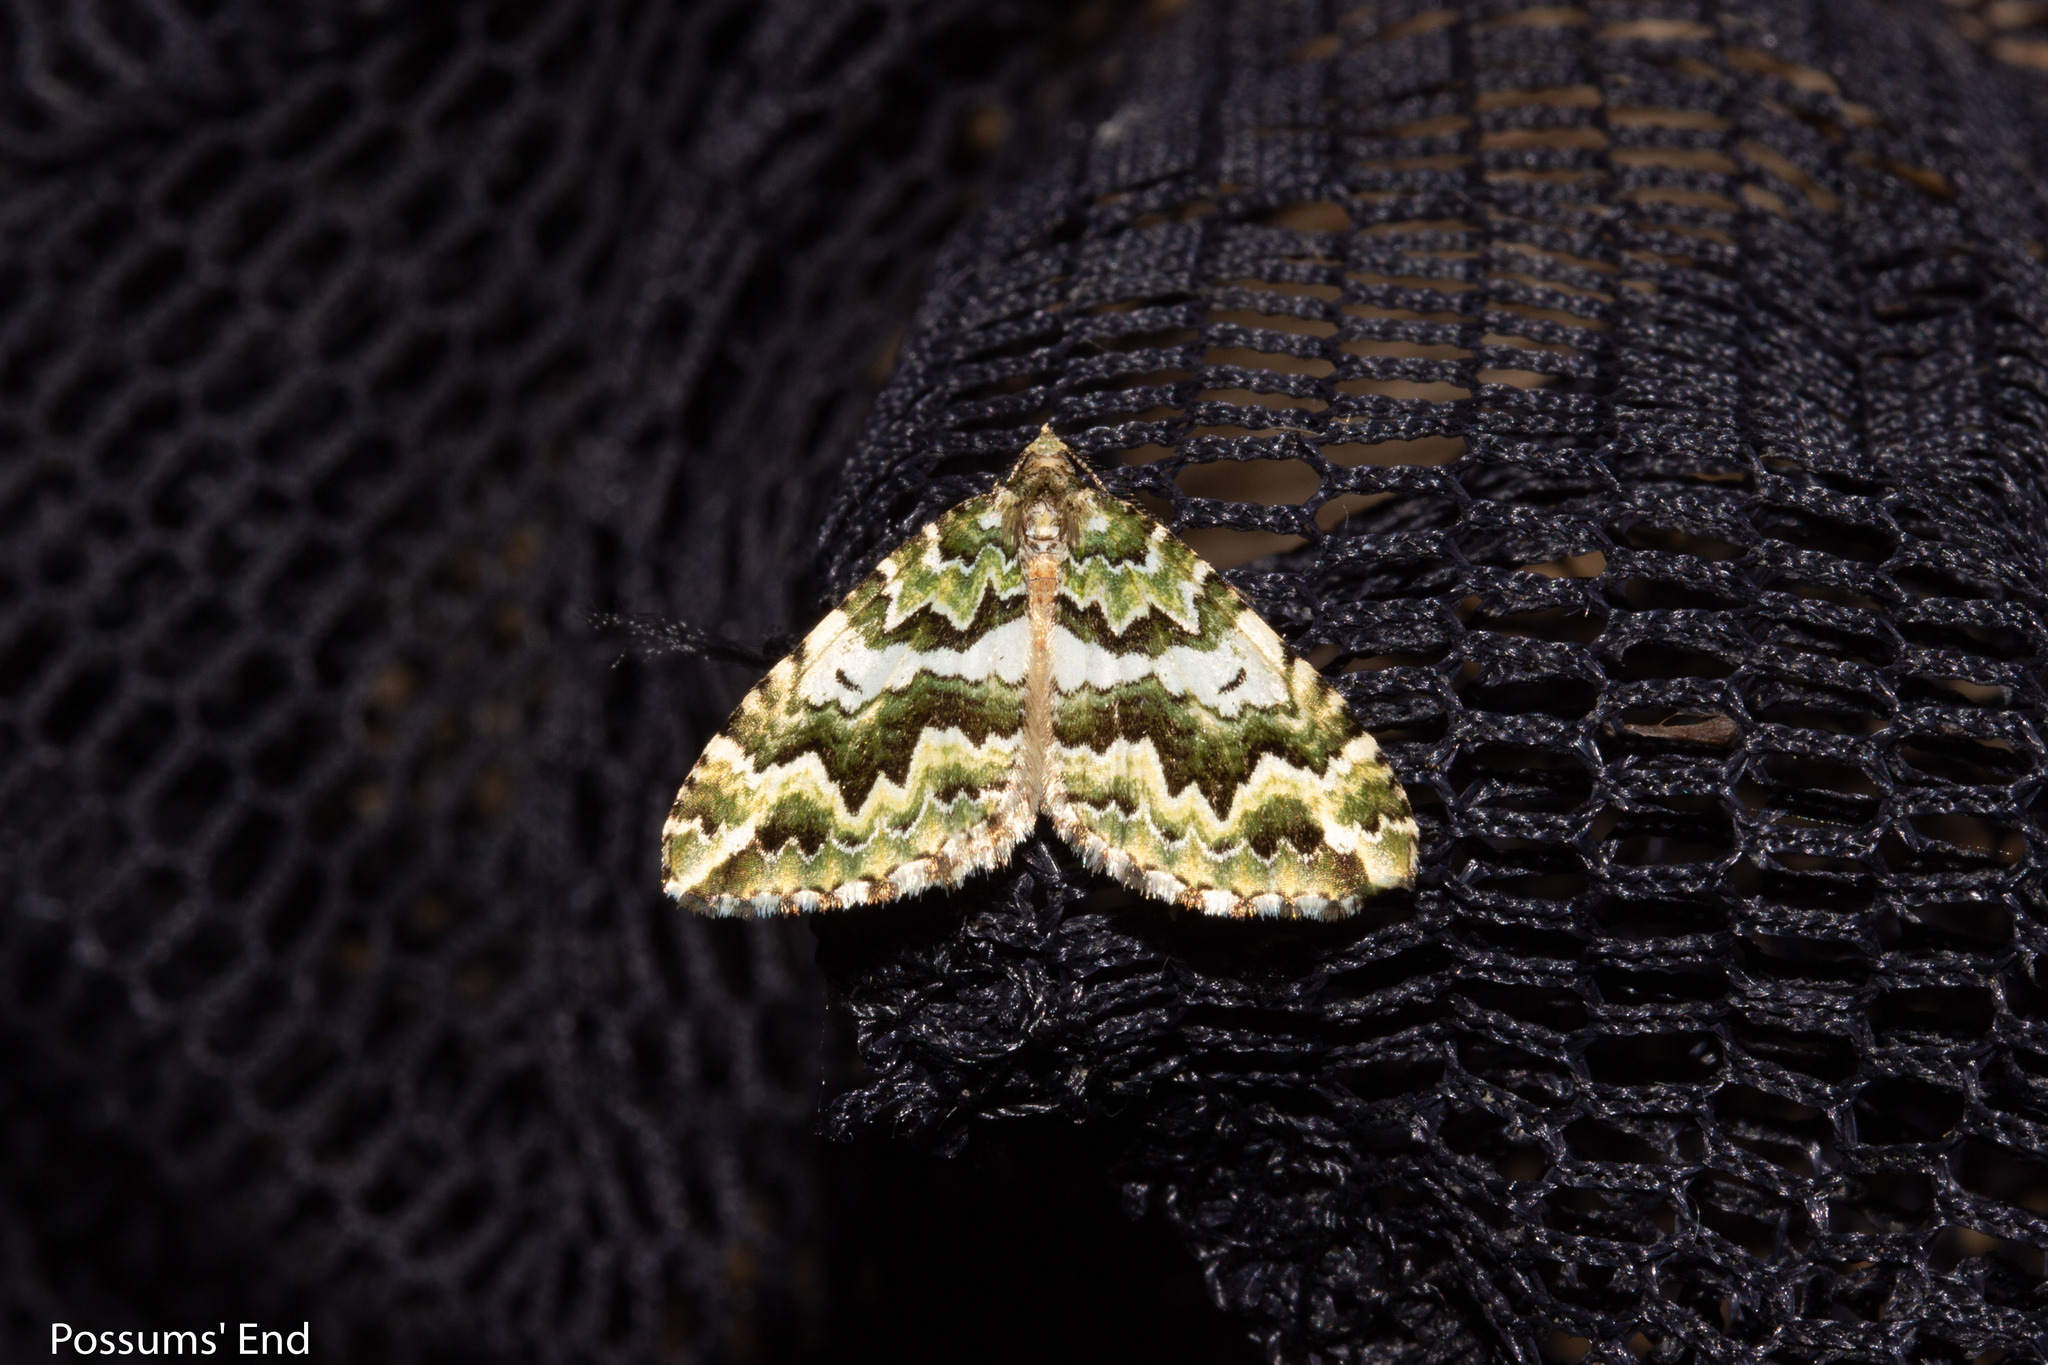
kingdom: Animalia
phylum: Arthropoda
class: Insecta
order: Lepidoptera
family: Geometridae
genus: Asaphodes
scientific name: Asaphodes beata
